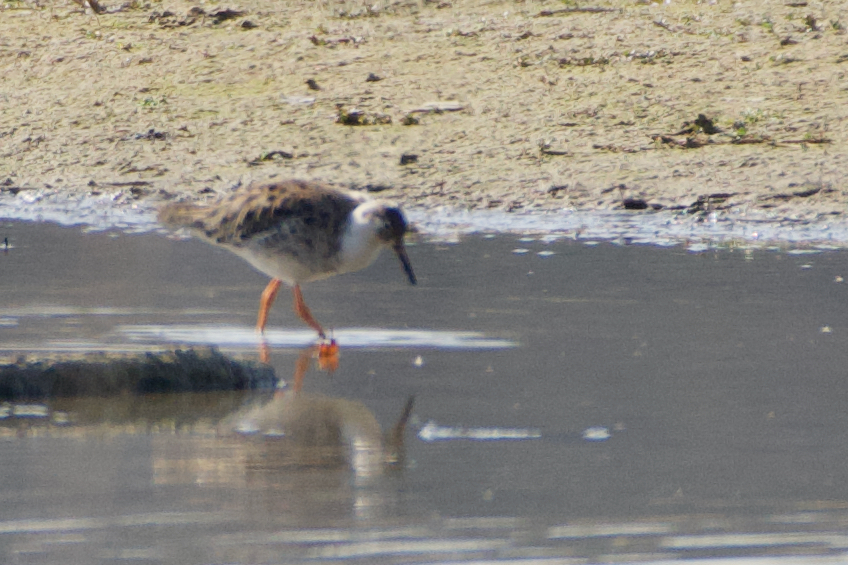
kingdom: Animalia
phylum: Chordata
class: Aves
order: Charadriiformes
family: Scolopacidae
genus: Calidris
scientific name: Calidris pugnax
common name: Ruff
